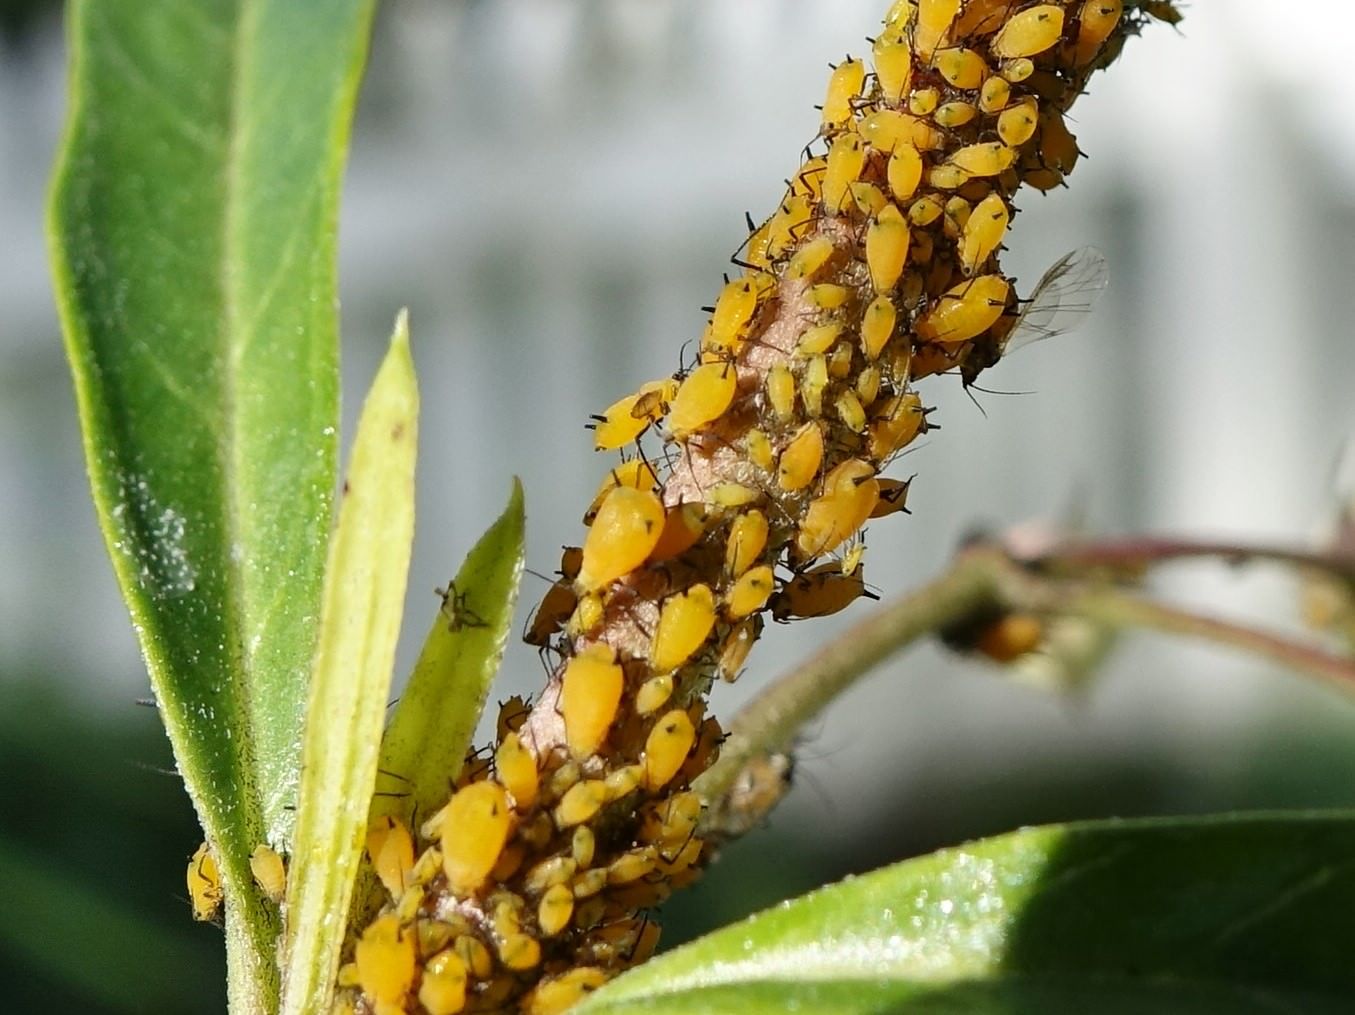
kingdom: Animalia
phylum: Arthropoda
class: Insecta
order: Hemiptera
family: Aphididae
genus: Aphis
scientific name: Aphis nerii
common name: Oleander aphid
